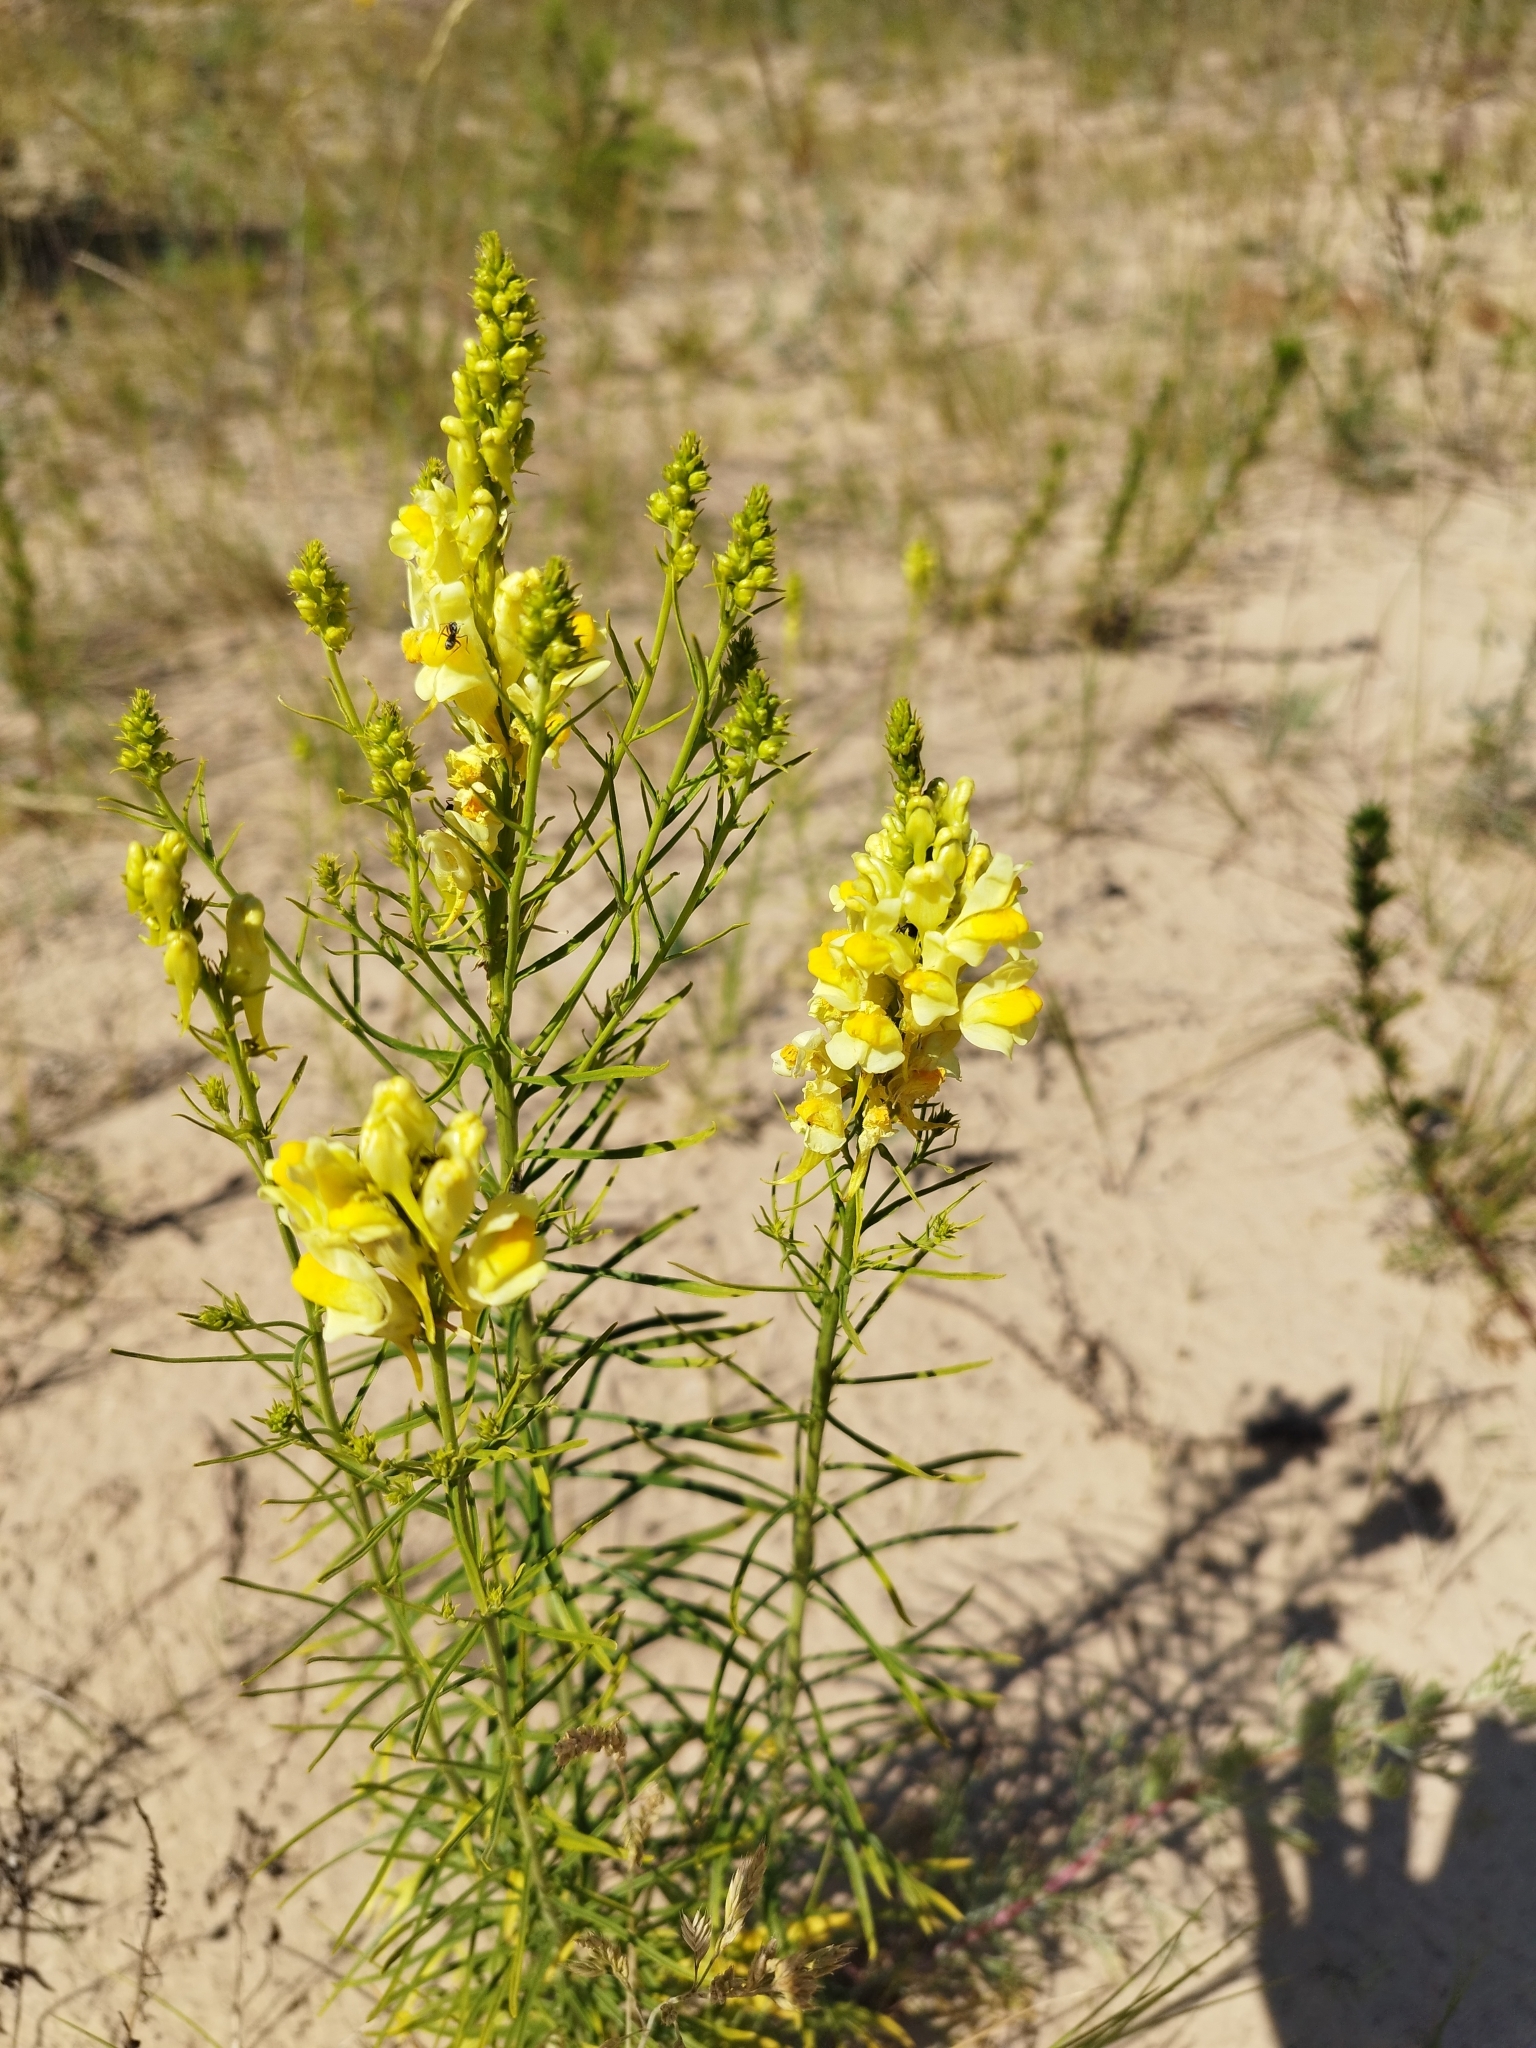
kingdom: Plantae
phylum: Tracheophyta
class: Magnoliopsida
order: Lamiales
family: Plantaginaceae
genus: Linaria
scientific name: Linaria vulgaris
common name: Butter and eggs
